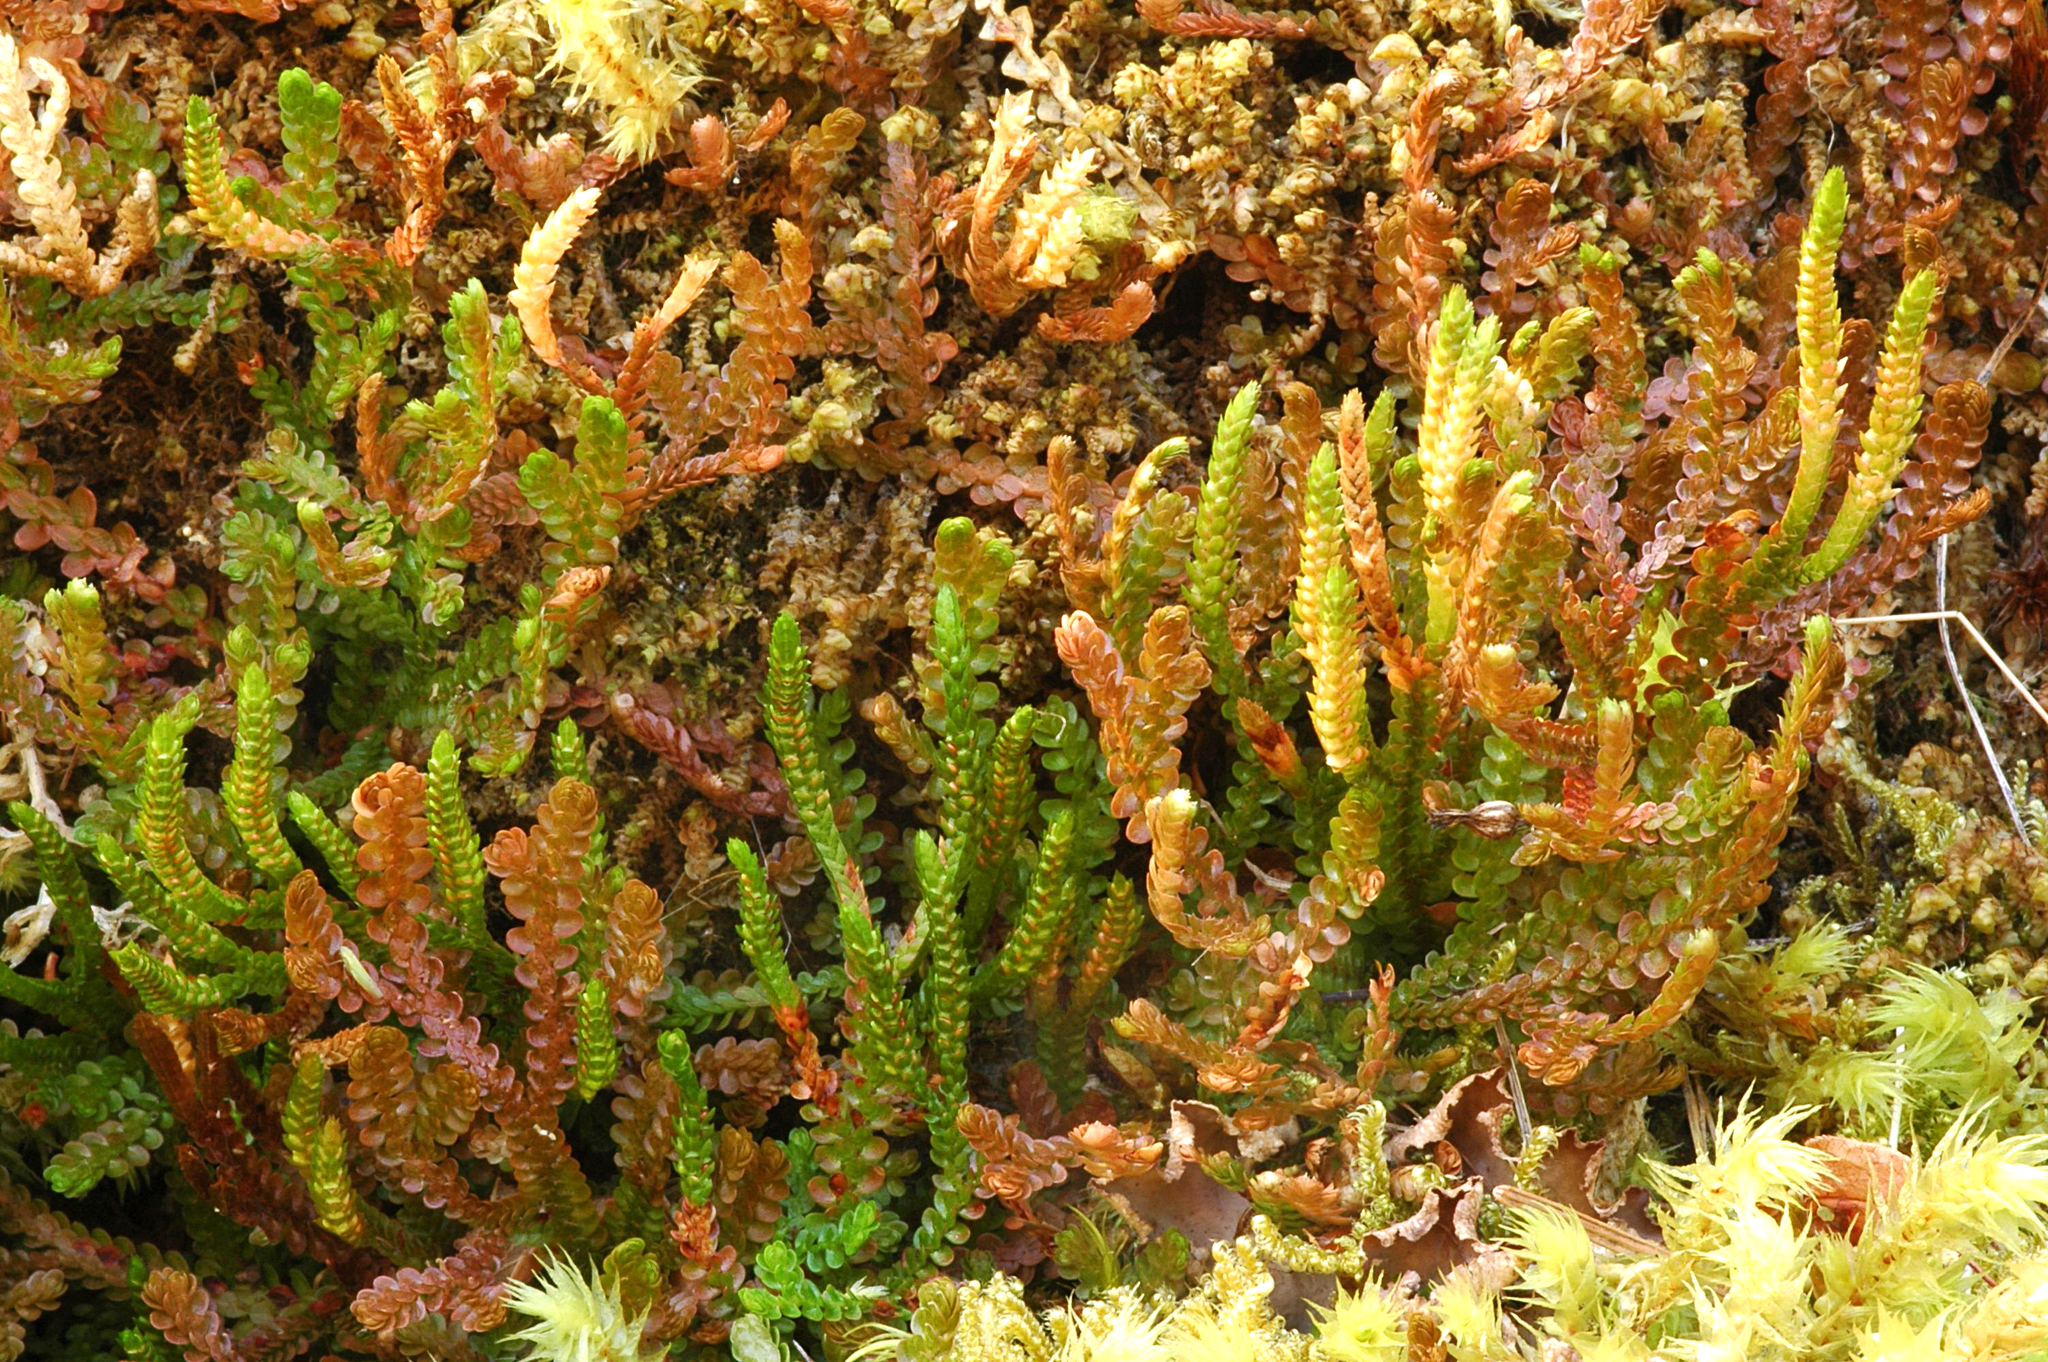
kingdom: Plantae
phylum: Tracheophyta
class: Lycopodiopsida
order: Selaginellales
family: Selaginellaceae
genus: Selaginella
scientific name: Selaginella douglasii
